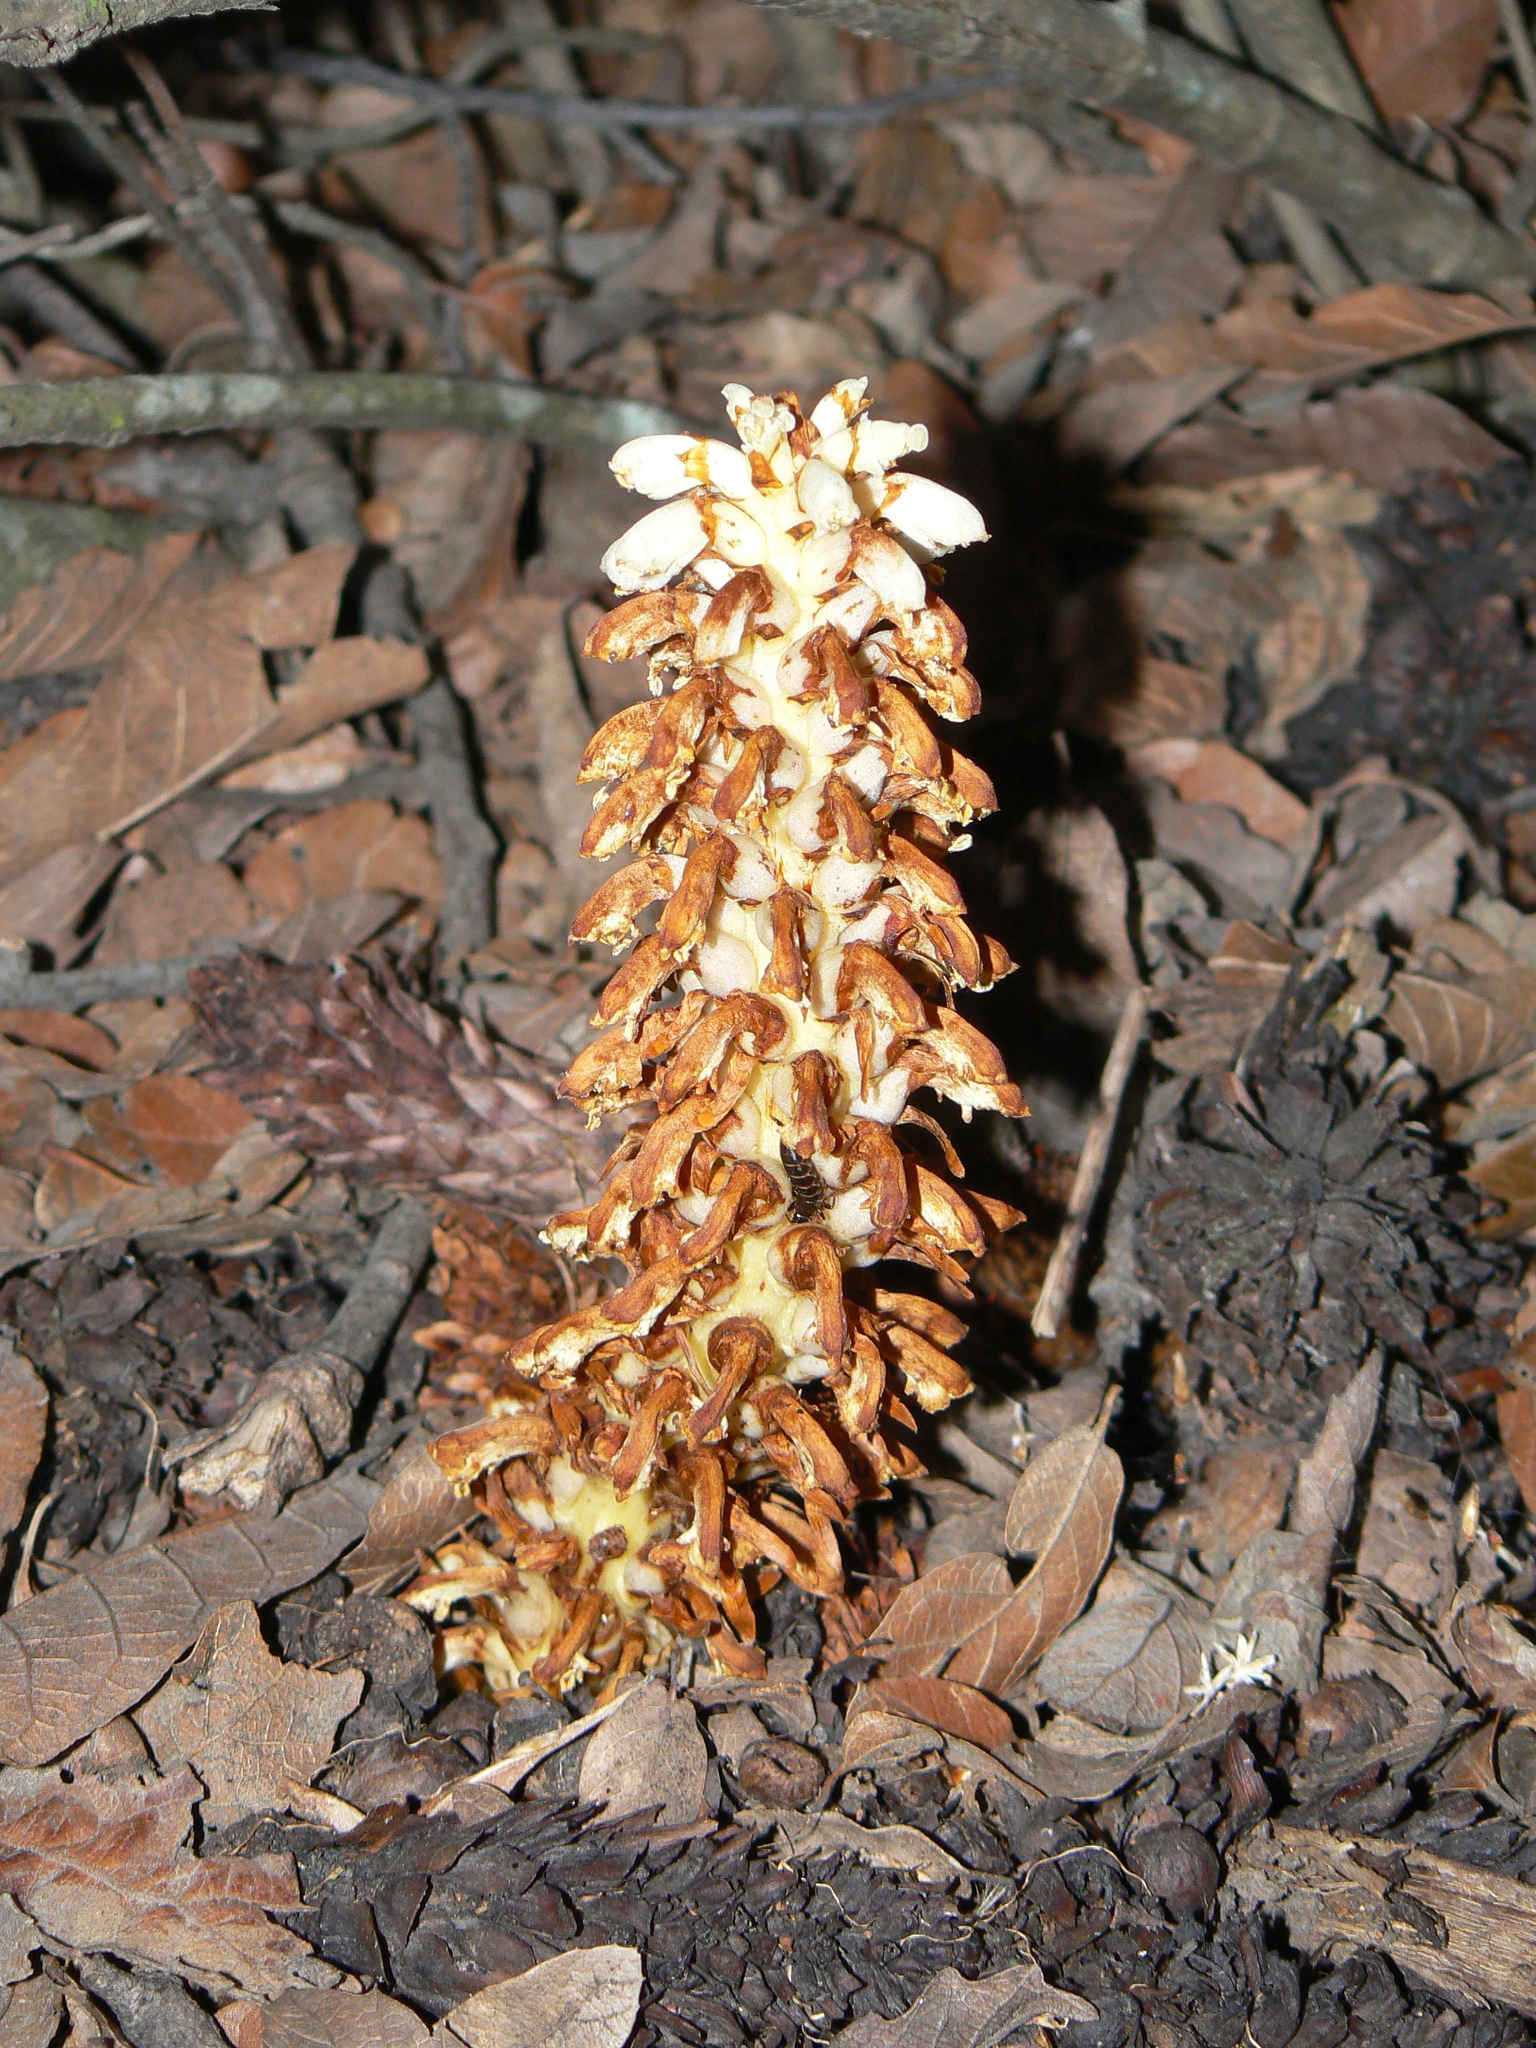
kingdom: Plantae
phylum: Tracheophyta
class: Magnoliopsida
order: Lamiales
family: Orobanchaceae
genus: Conopholis
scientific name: Conopholis alpina
